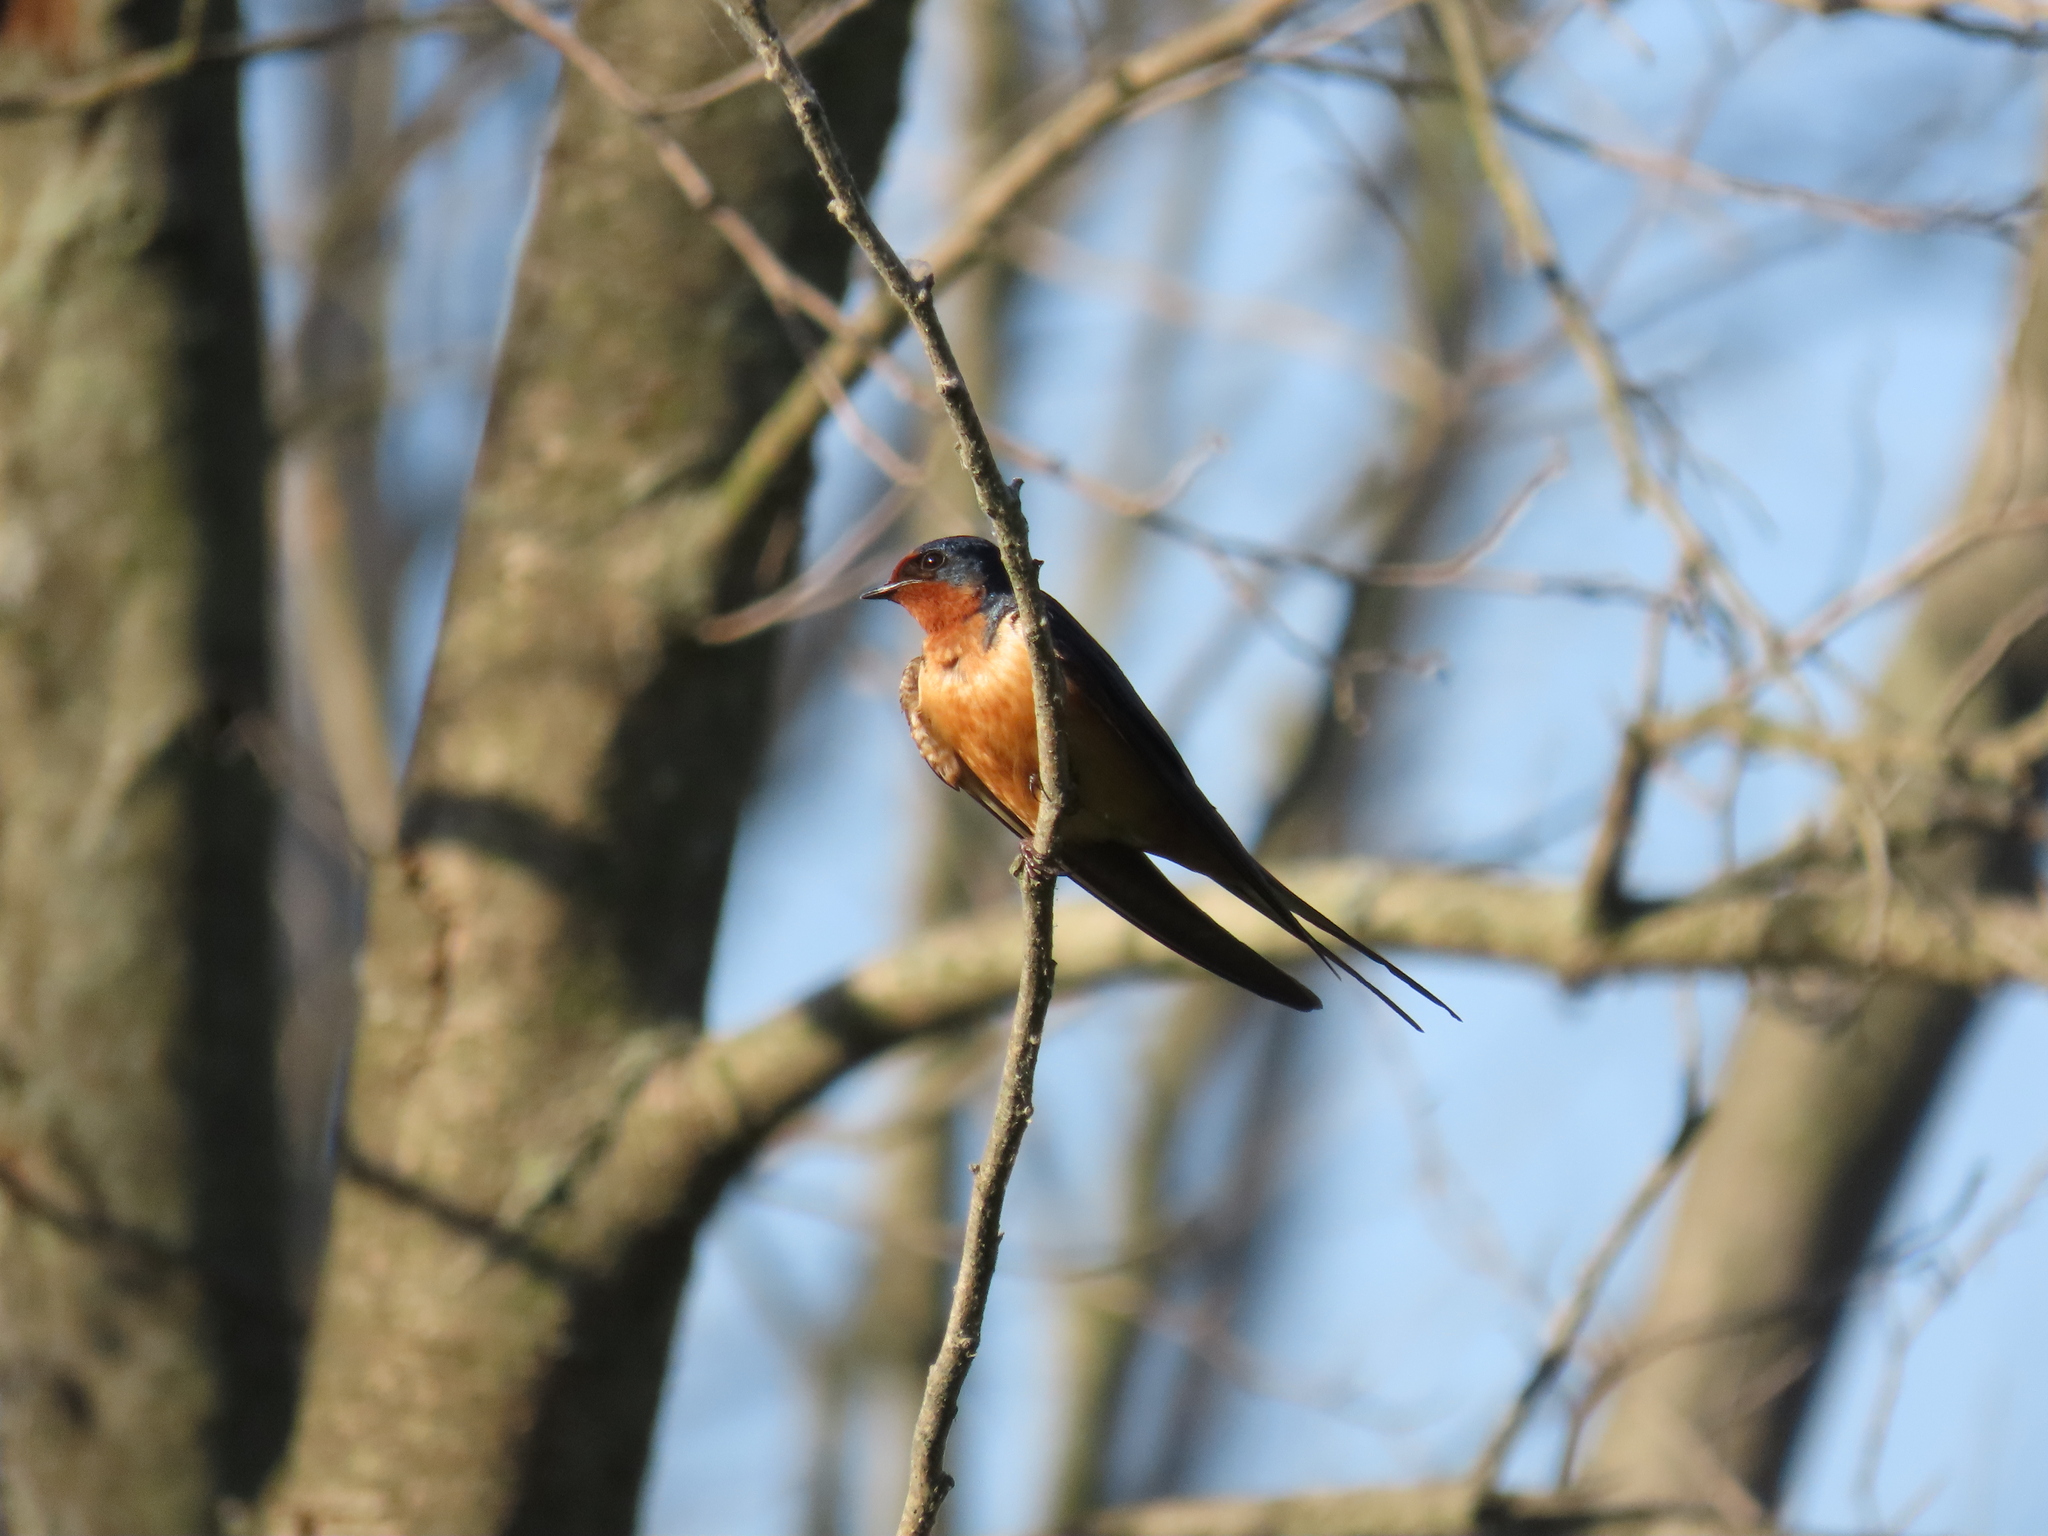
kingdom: Animalia
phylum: Chordata
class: Aves
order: Passeriformes
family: Hirundinidae
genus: Hirundo
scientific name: Hirundo rustica
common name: Barn swallow
